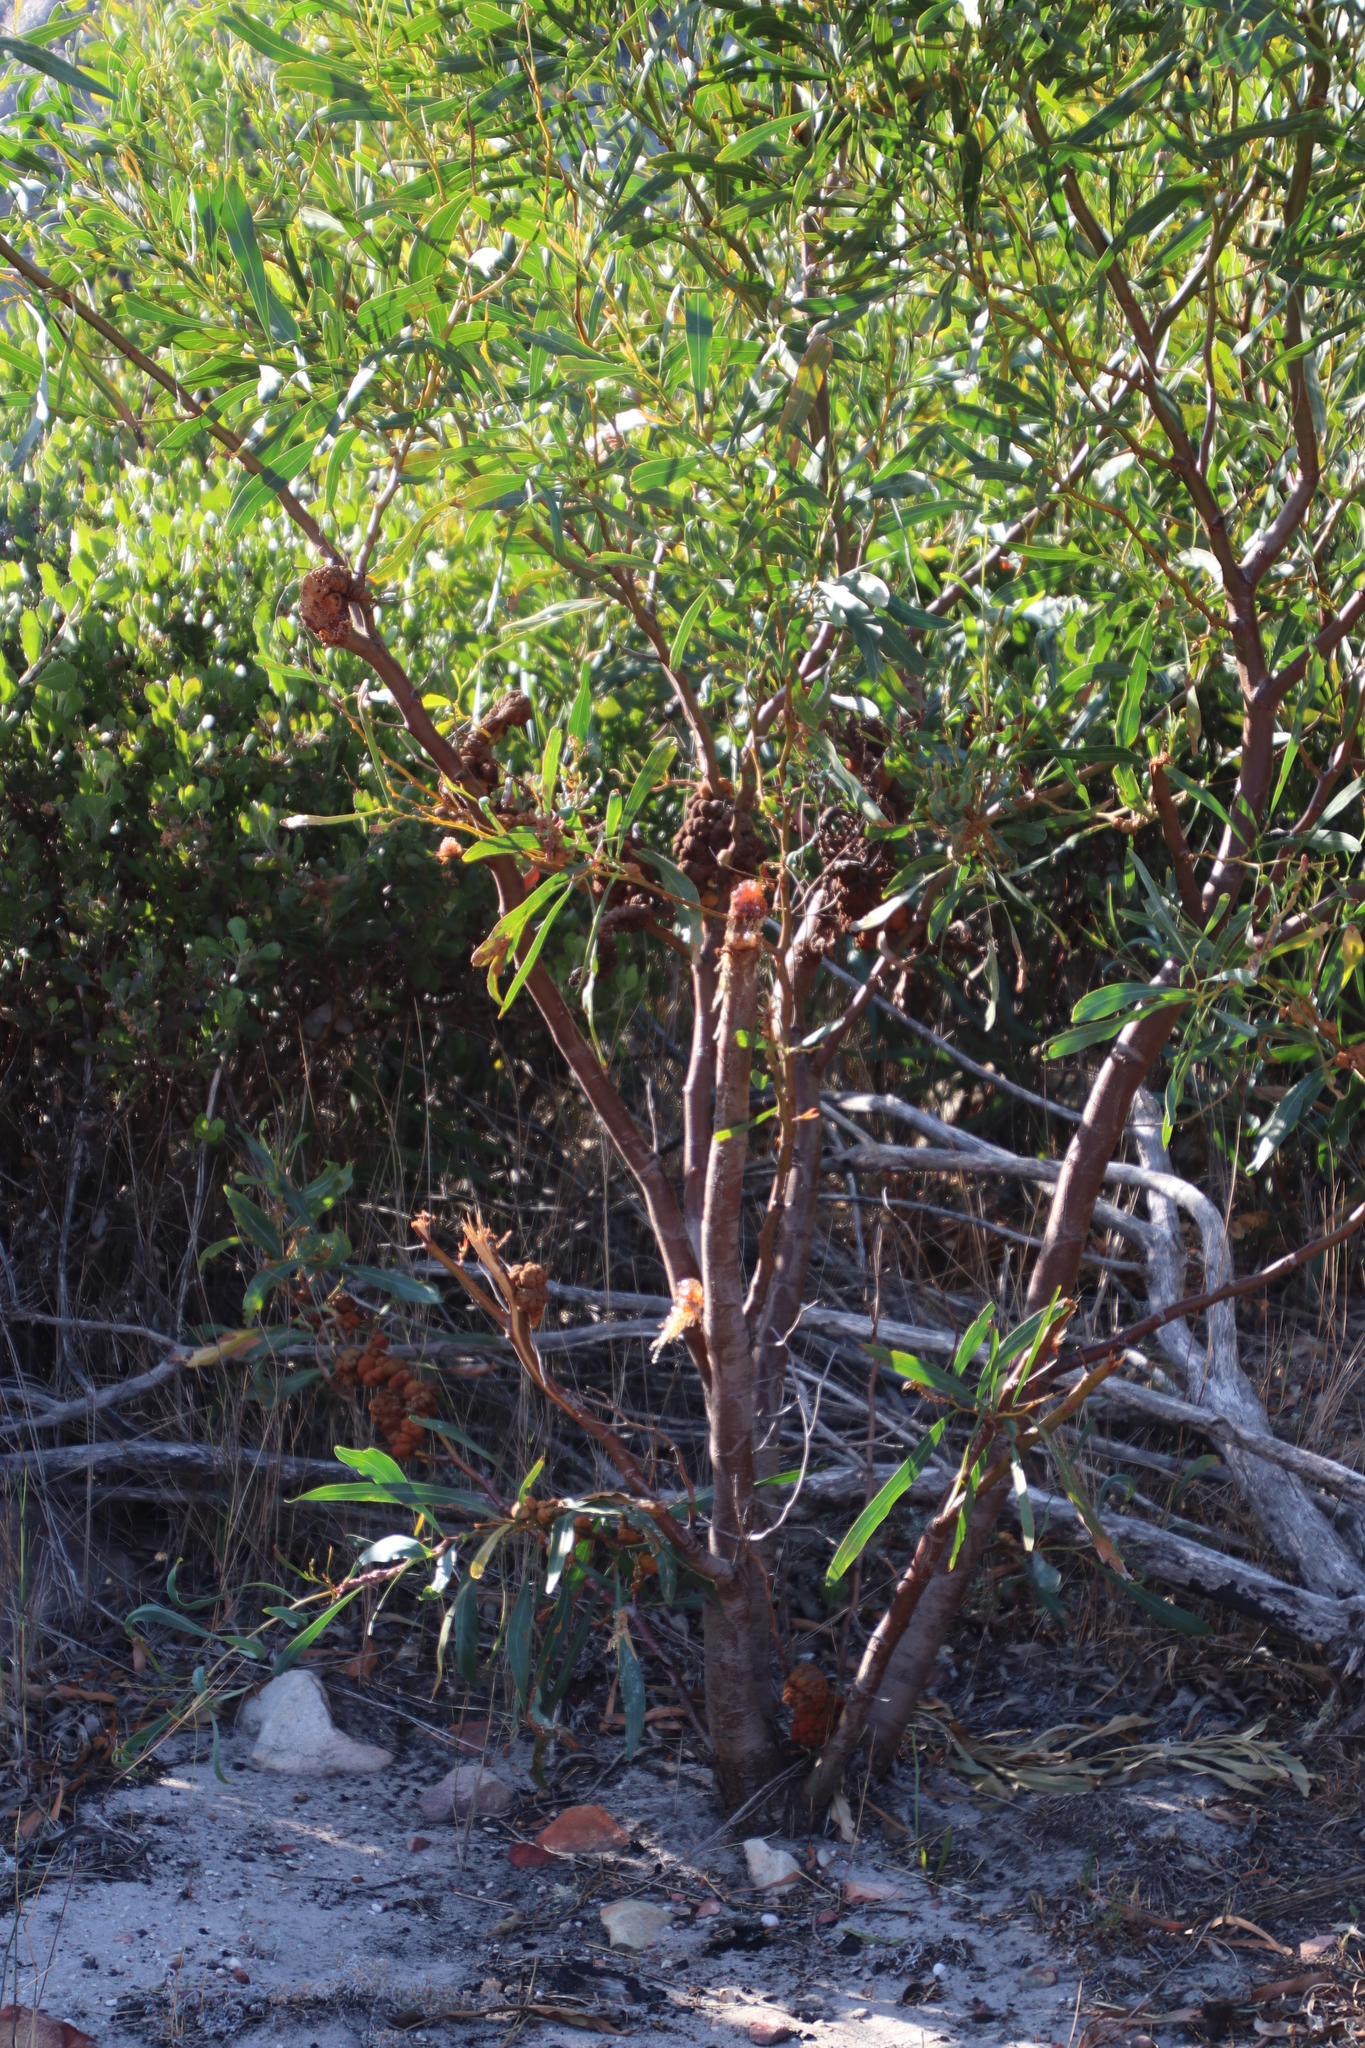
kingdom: Fungi
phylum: Basidiomycota
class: Pucciniomycetes
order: Pucciniales
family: Uromycladiaceae
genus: Uromycladium
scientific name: Uromycladium morrisii
